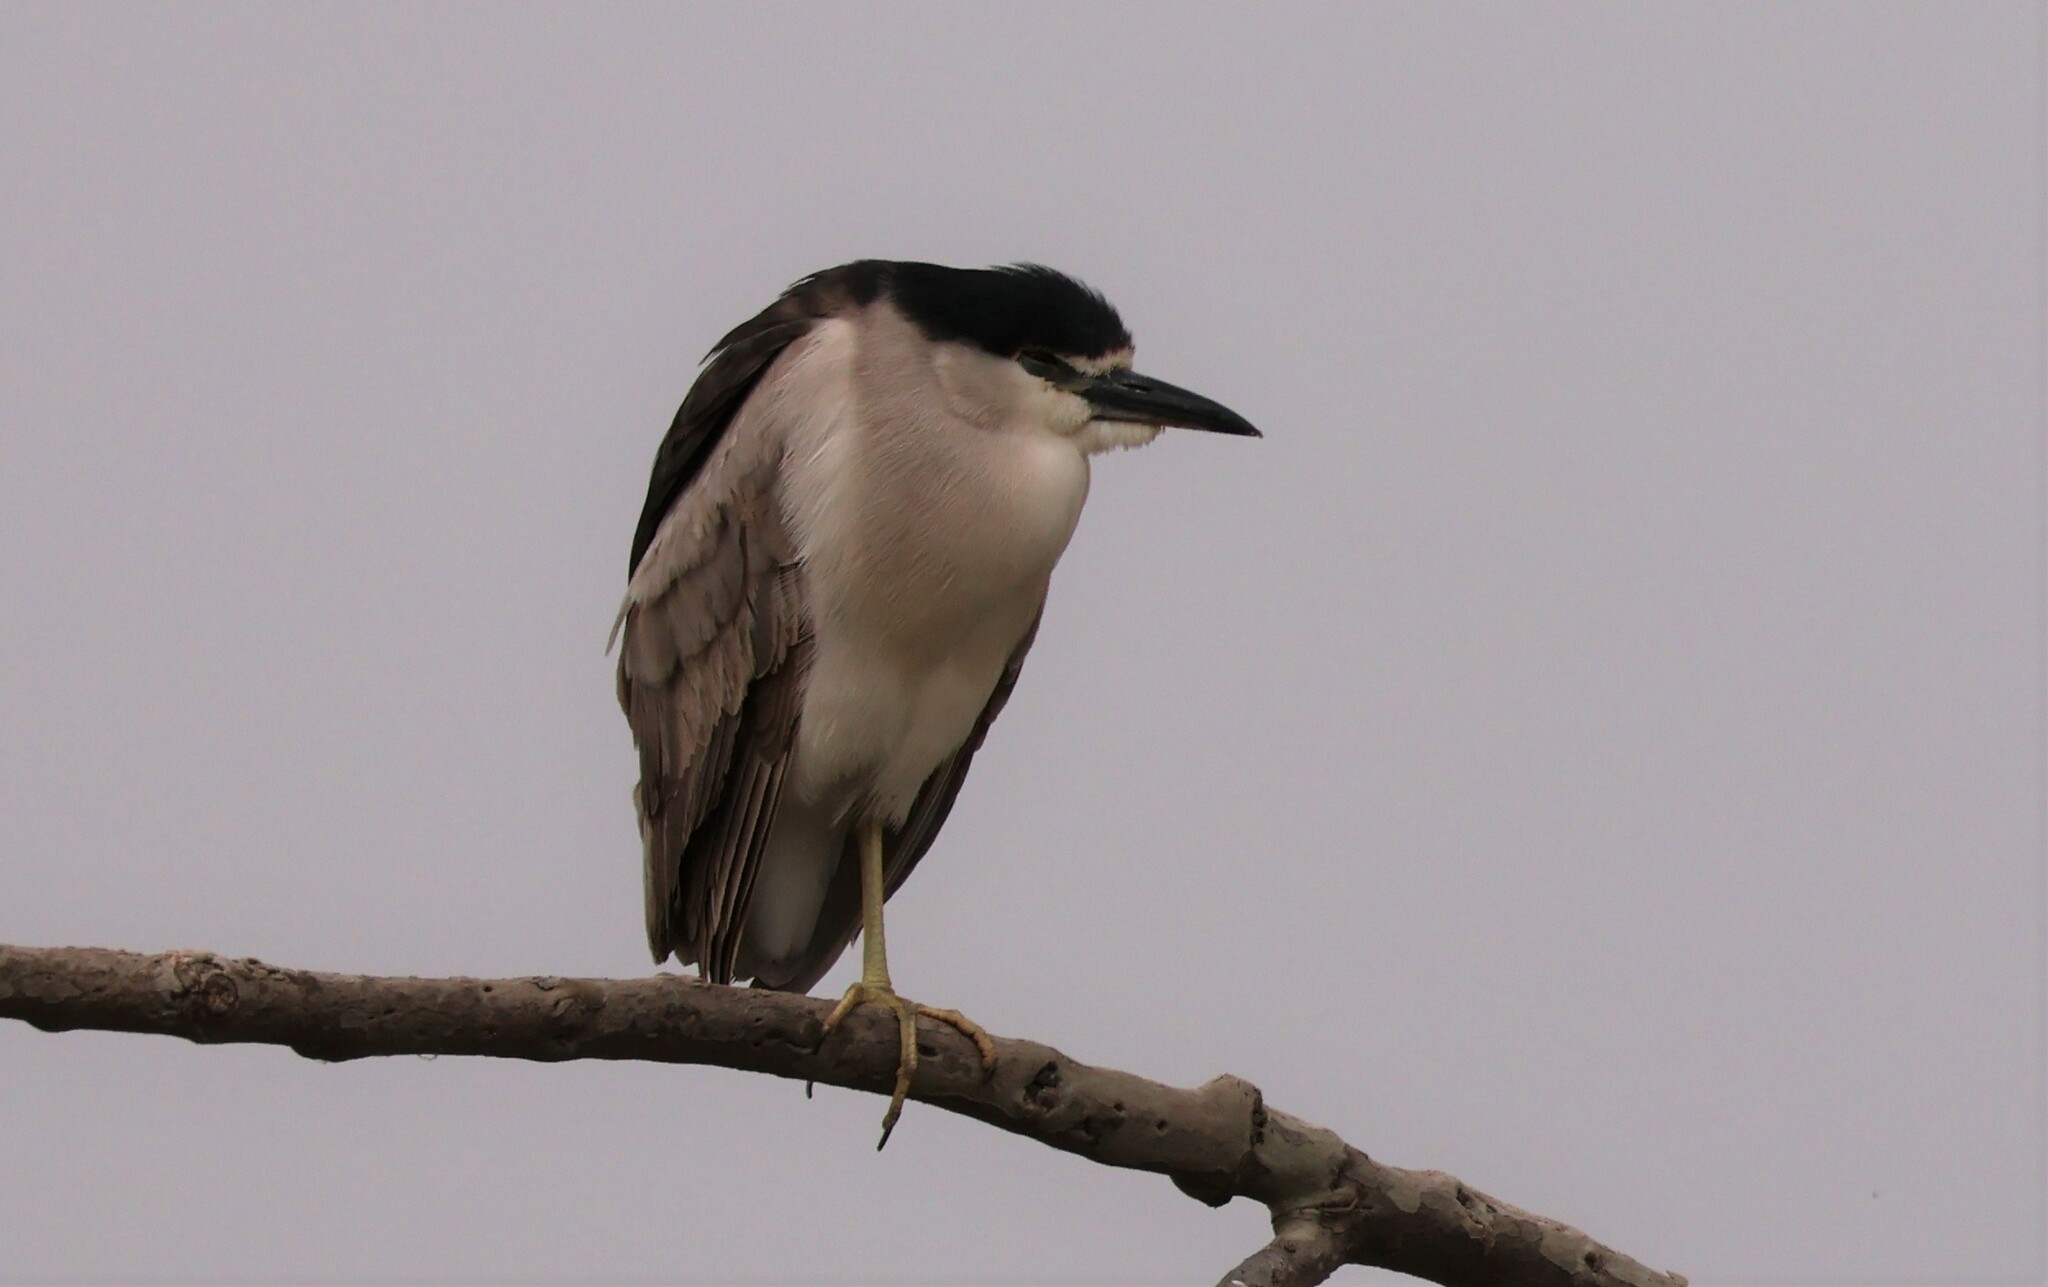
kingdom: Animalia
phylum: Chordata
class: Aves
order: Pelecaniformes
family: Ardeidae
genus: Nycticorax
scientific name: Nycticorax nycticorax
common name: Black-crowned night heron
